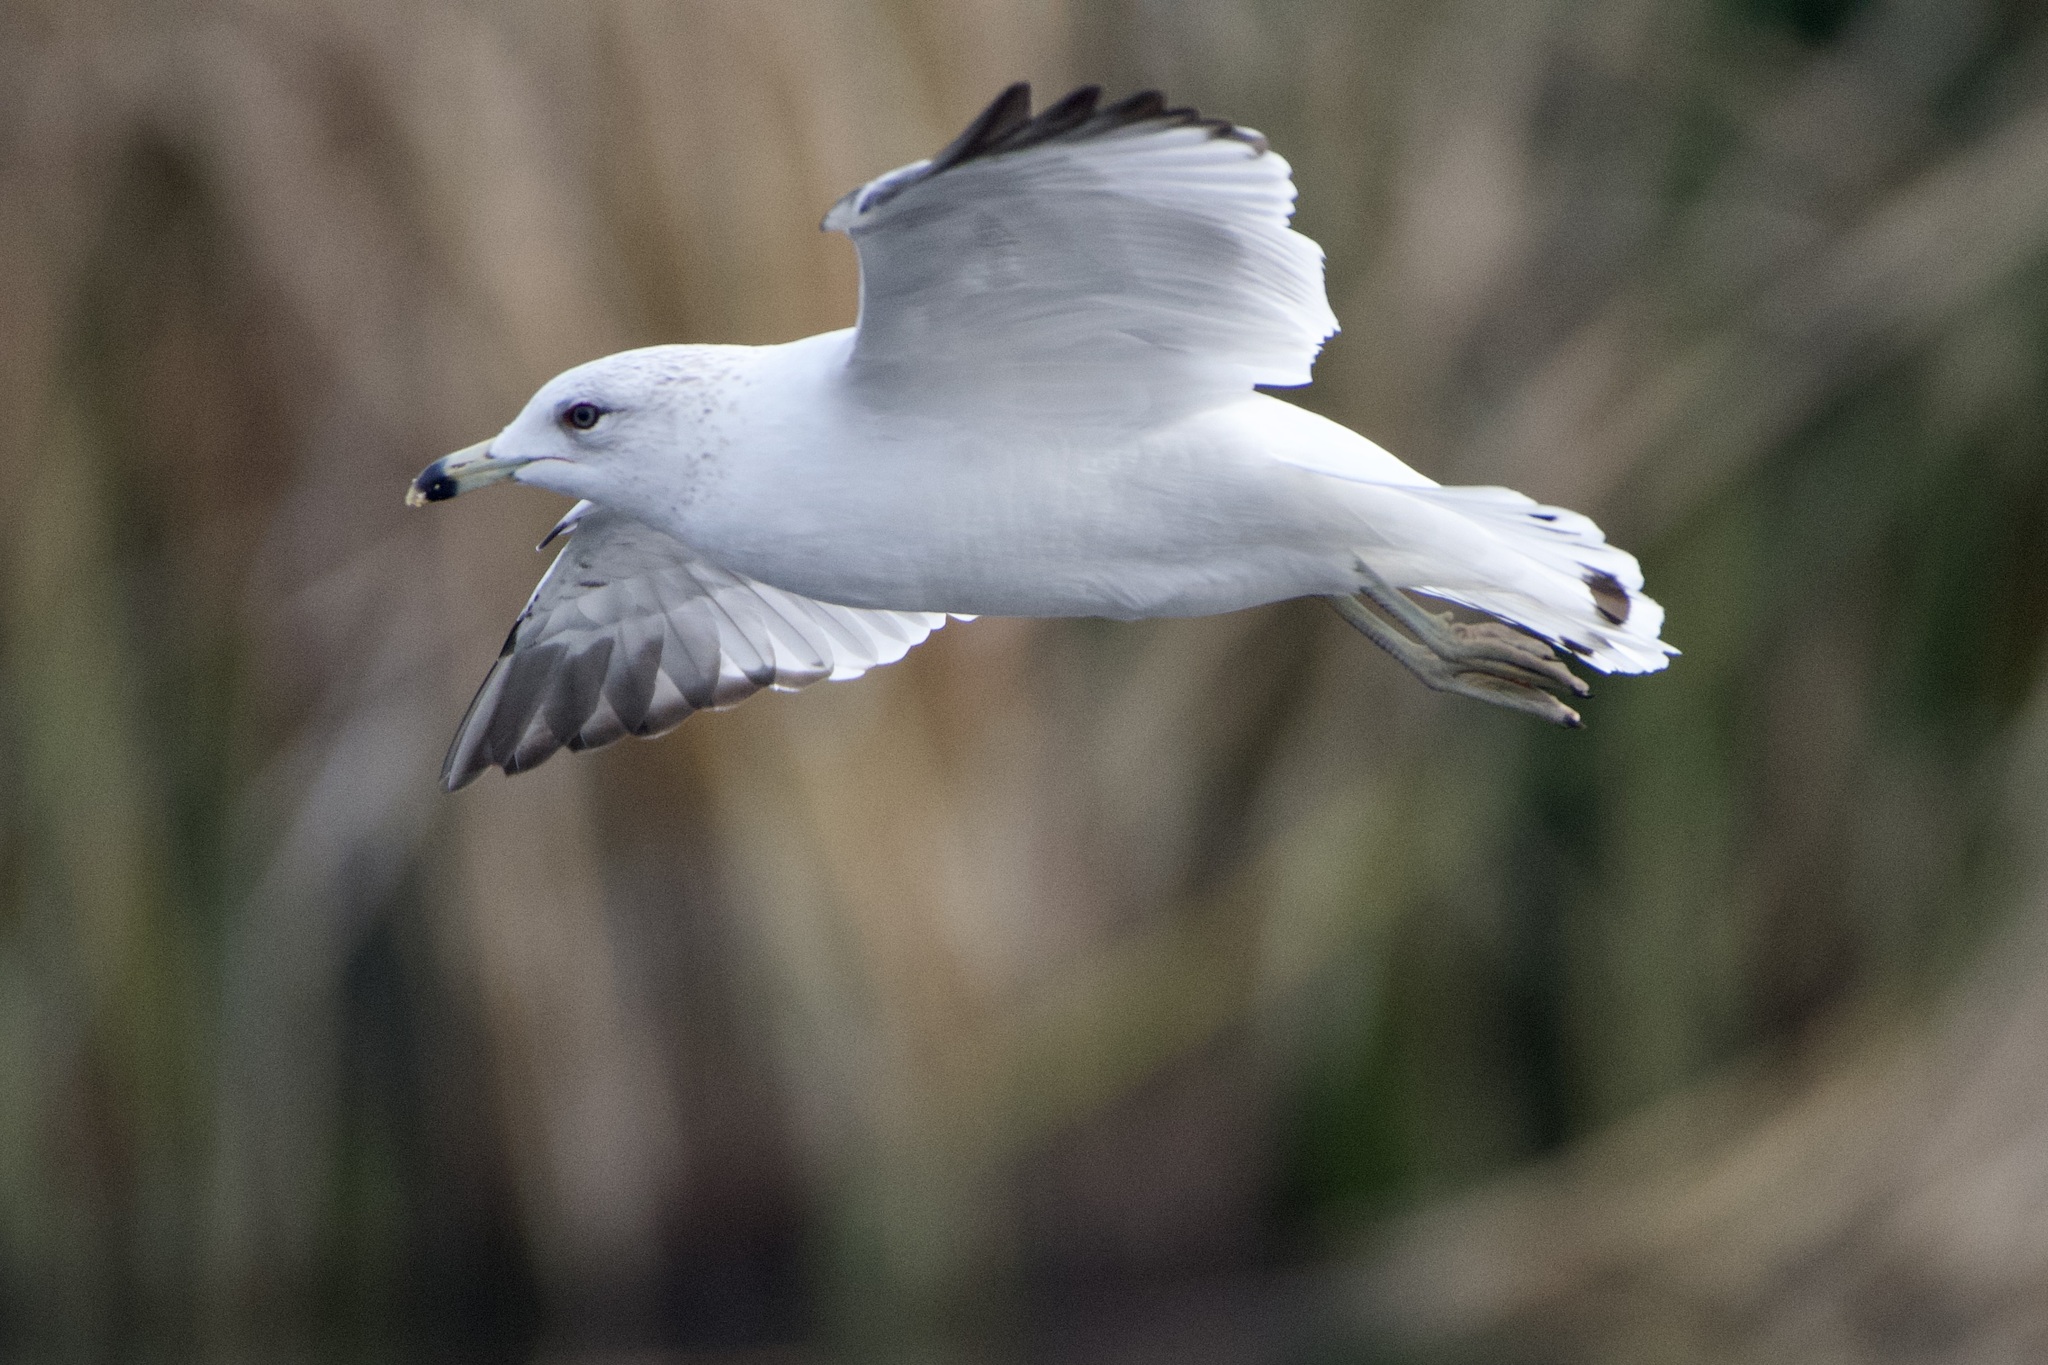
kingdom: Animalia
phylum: Chordata
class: Aves
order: Charadriiformes
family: Laridae
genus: Larus
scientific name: Larus delawarensis
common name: Ring-billed gull
